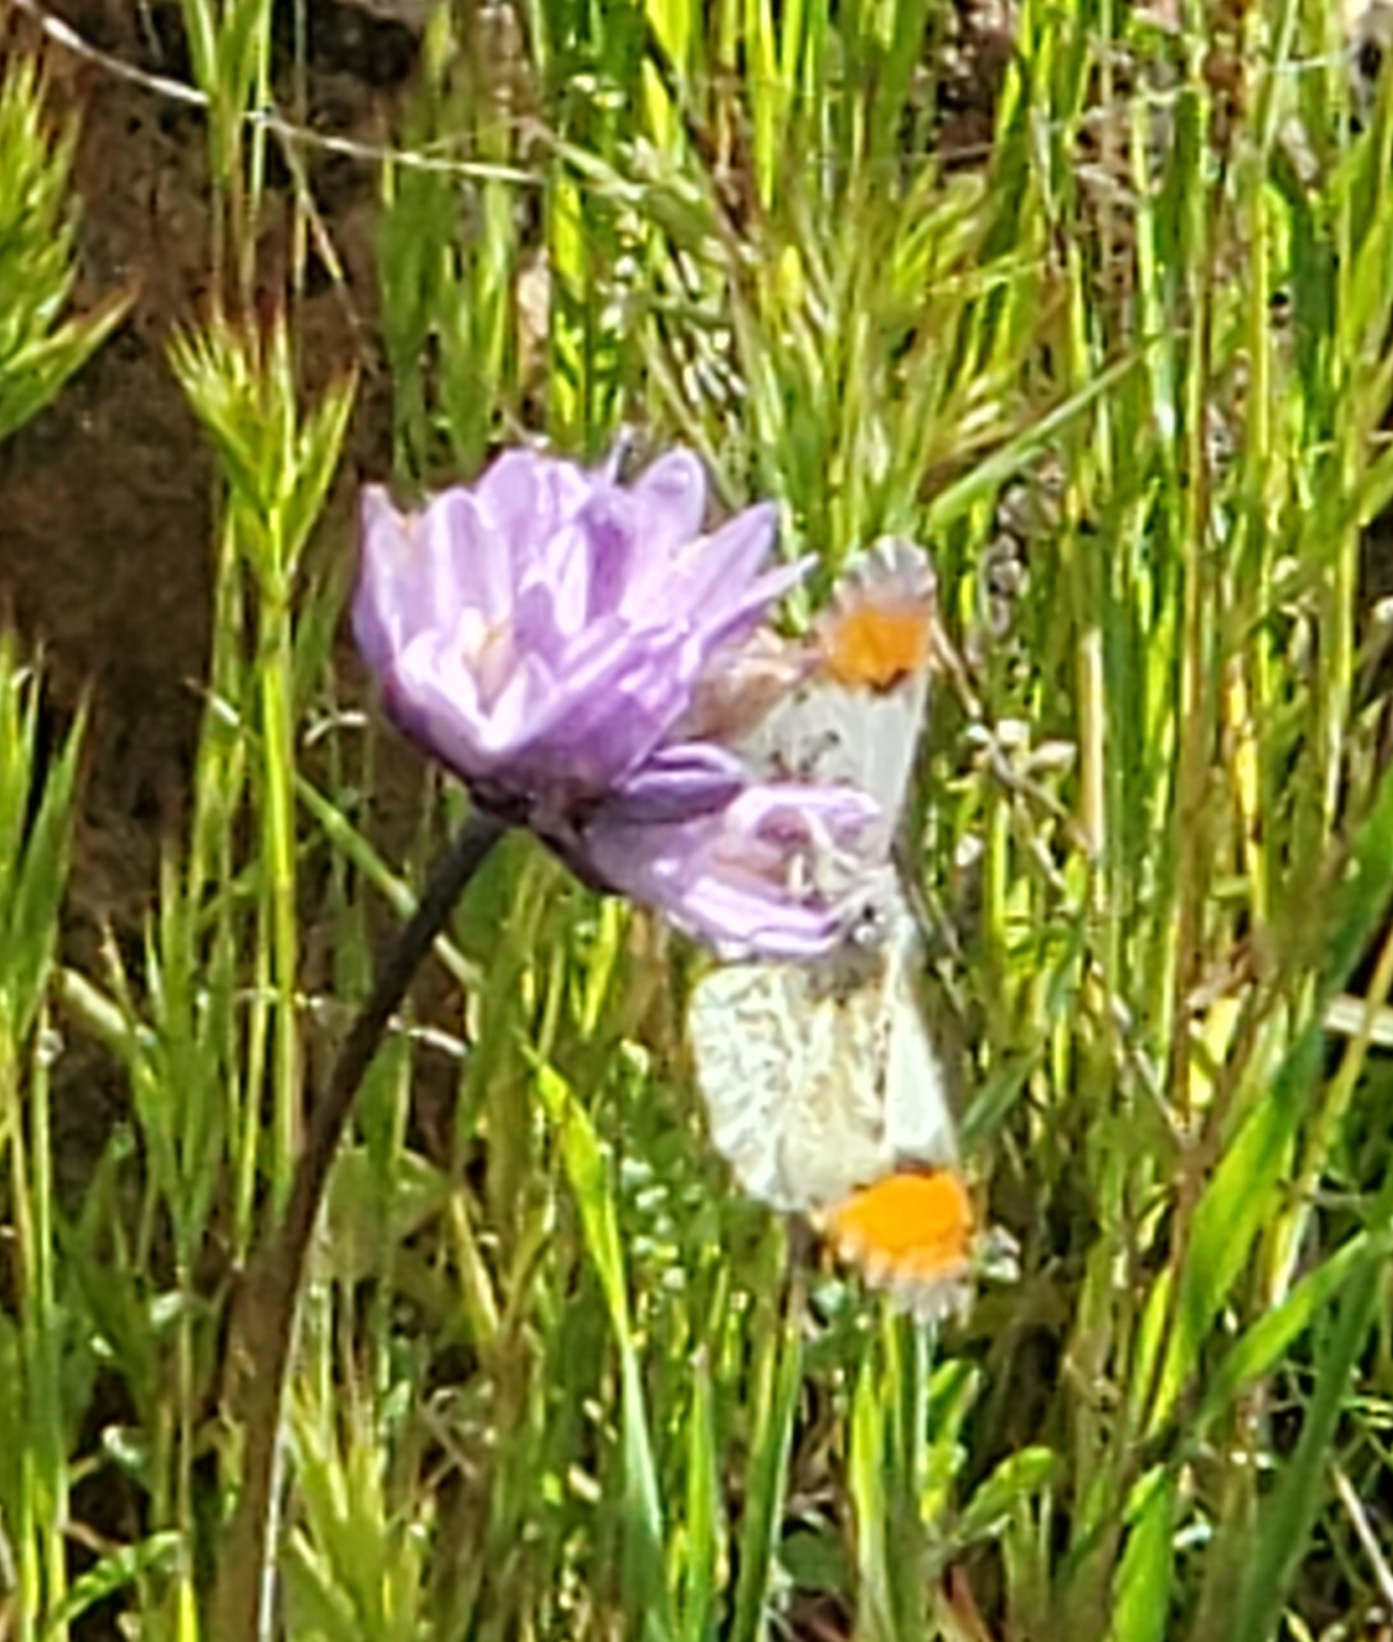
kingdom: Animalia
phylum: Arthropoda
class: Insecta
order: Lepidoptera
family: Pieridae
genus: Anthocharis
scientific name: Anthocharis sara
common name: Sara's orangetip
